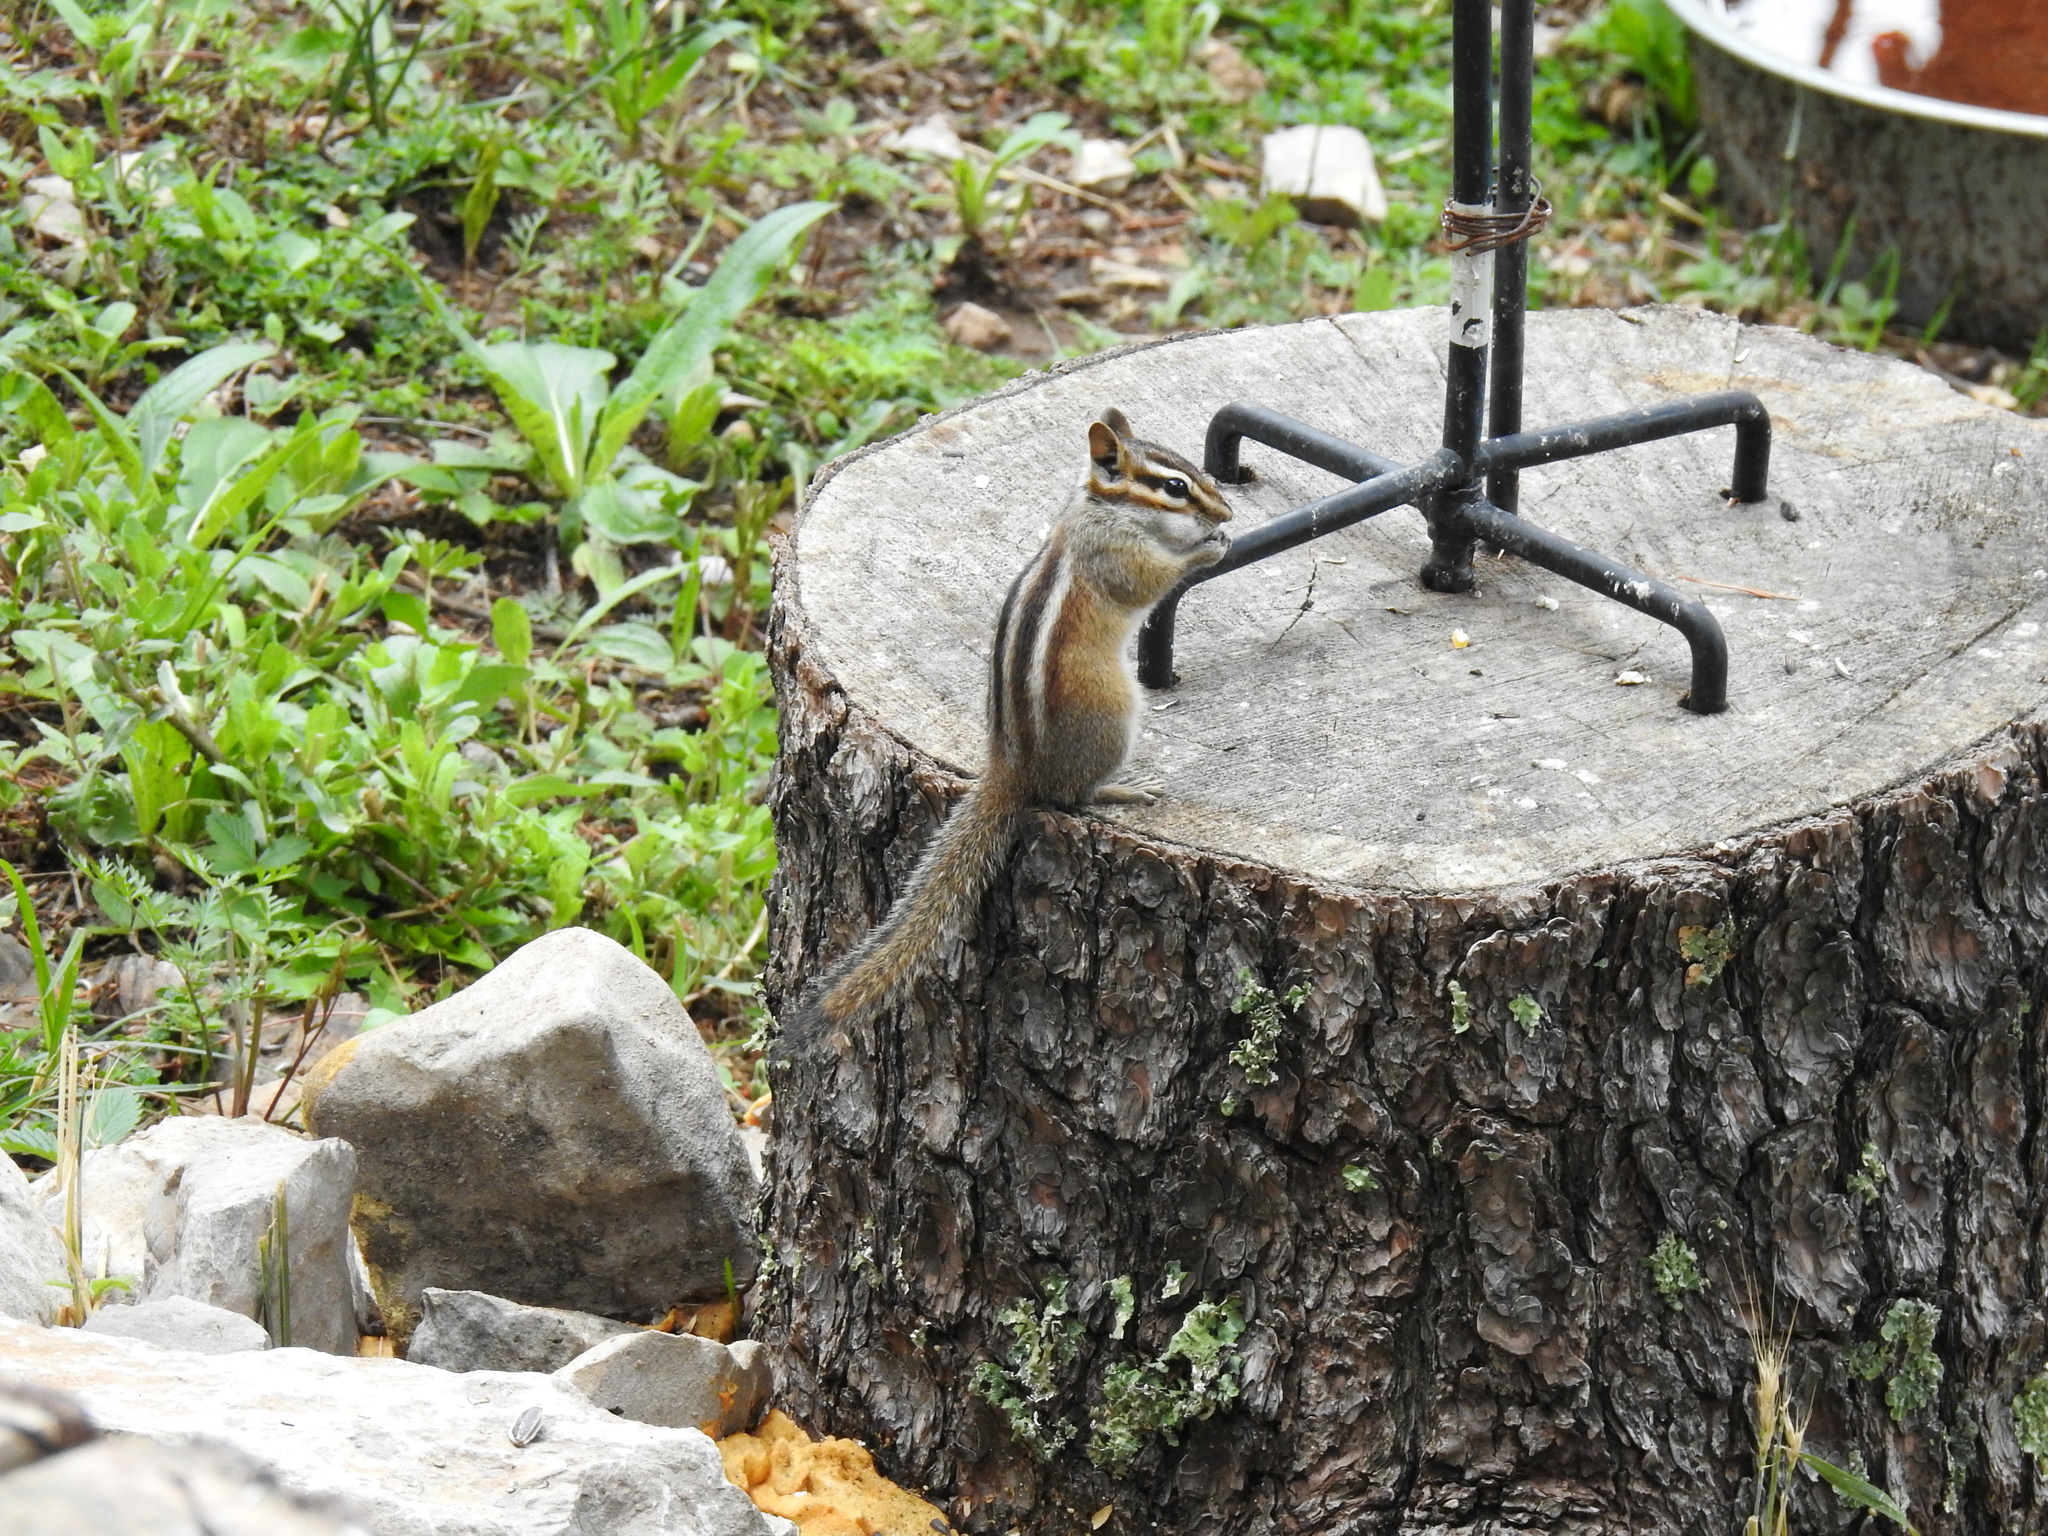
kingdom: Animalia
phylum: Chordata
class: Mammalia
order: Rodentia
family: Sciuridae
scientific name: Sciuridae
